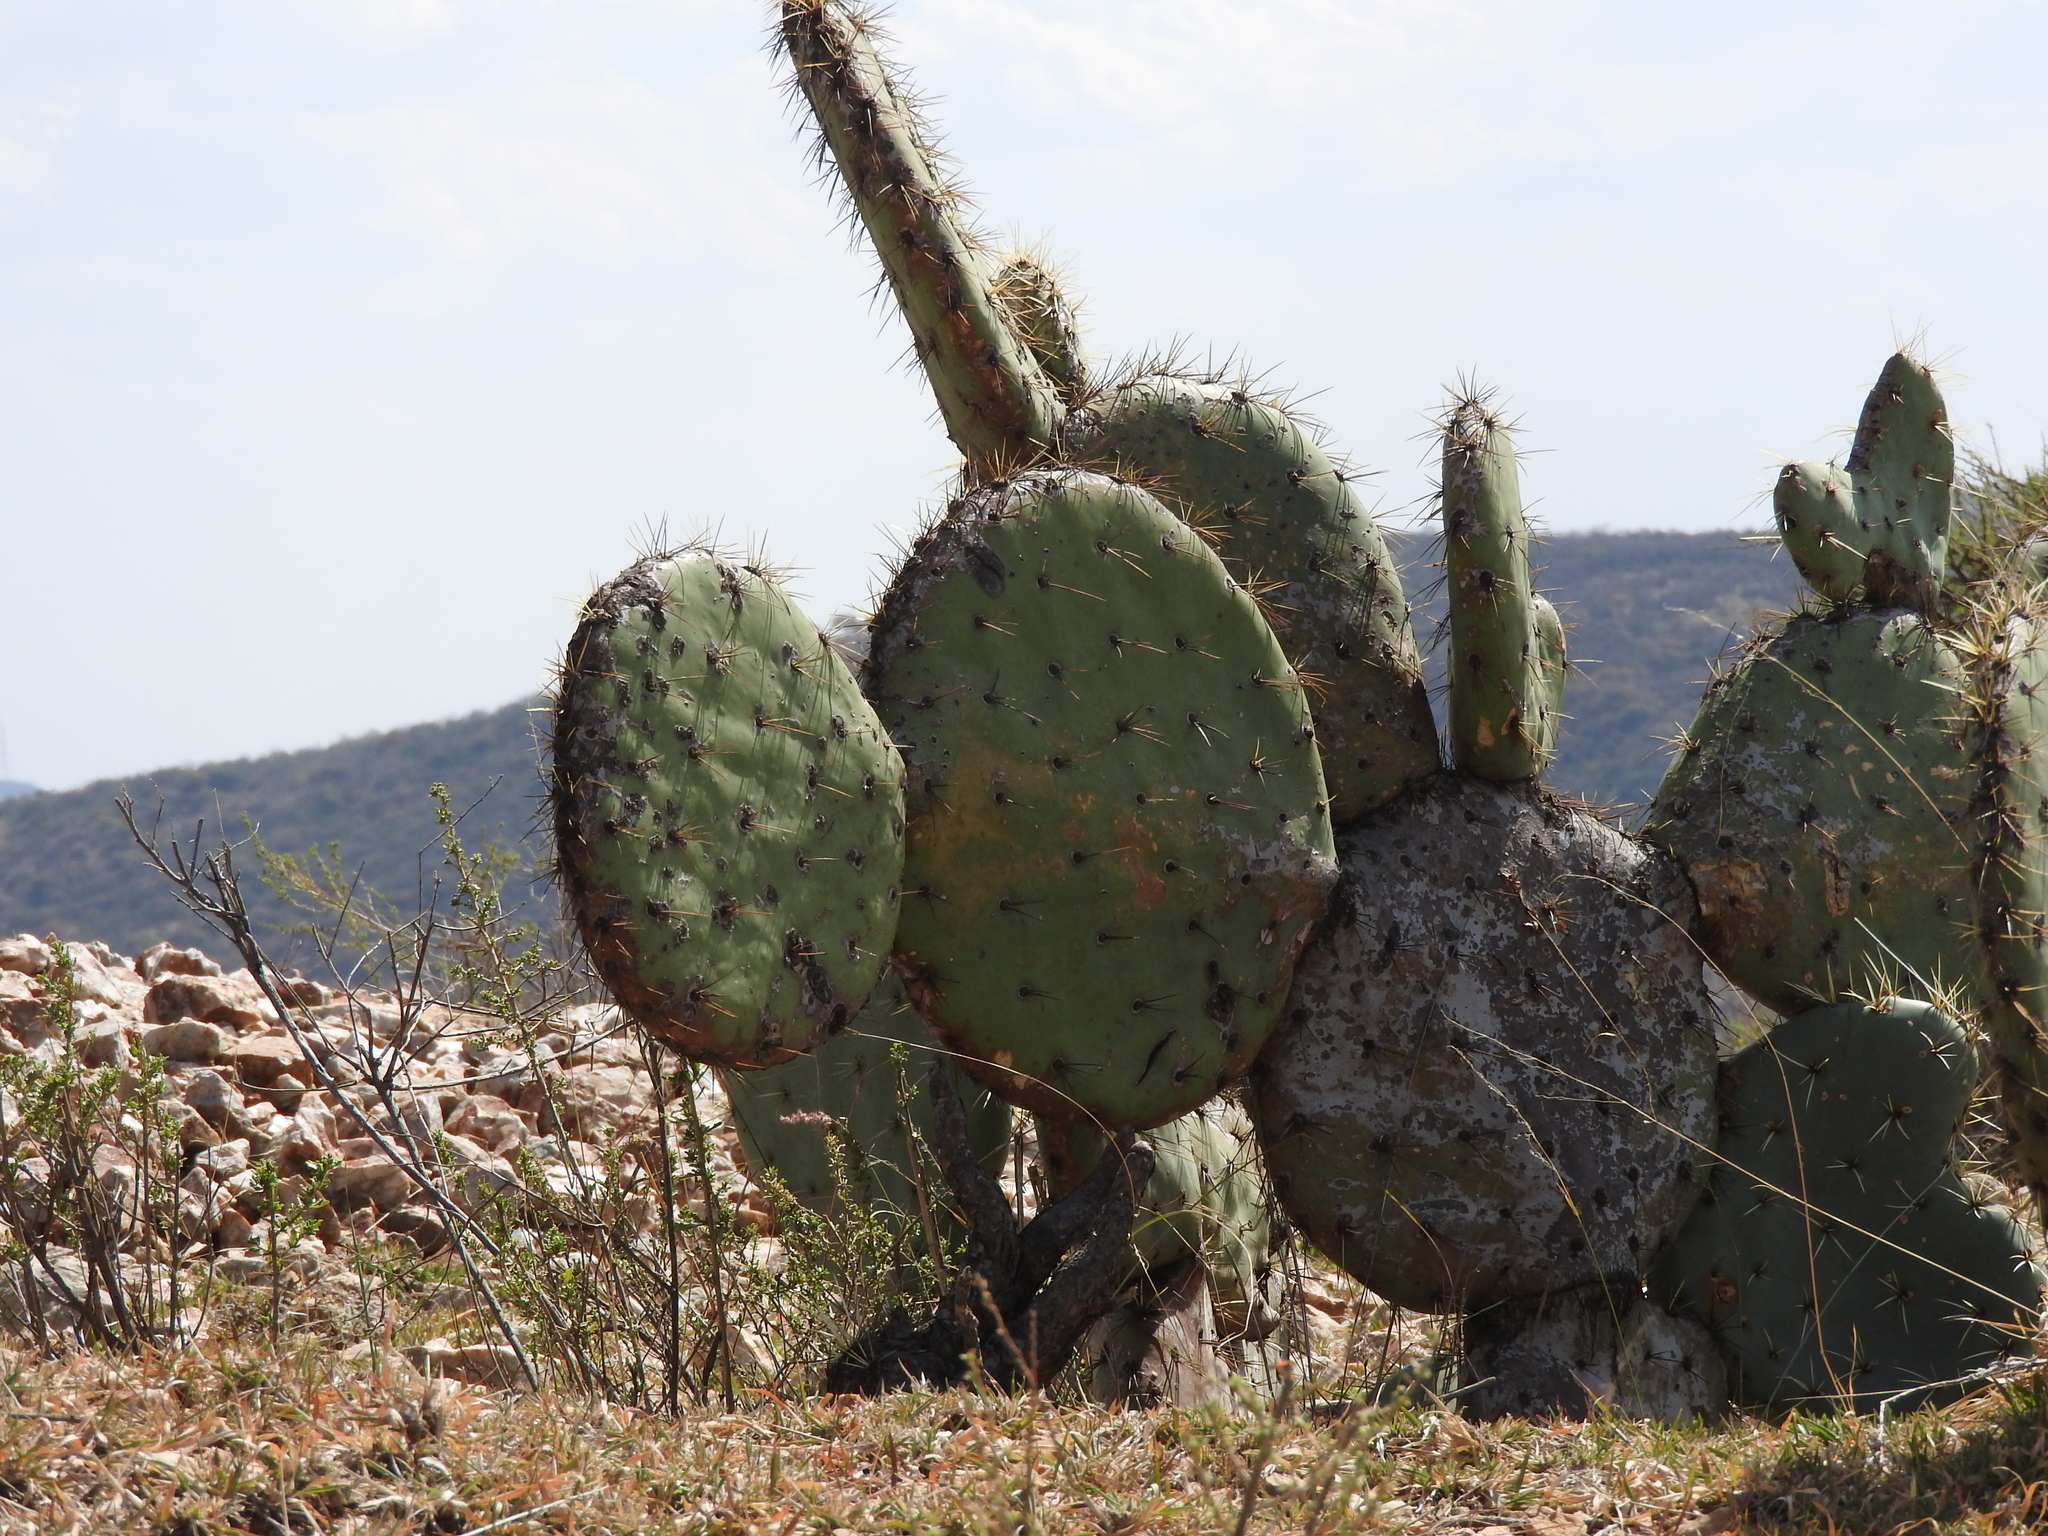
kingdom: Plantae
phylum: Tracheophyta
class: Magnoliopsida
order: Caryophyllales
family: Cactaceae
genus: Opuntia
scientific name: Opuntia robusta
